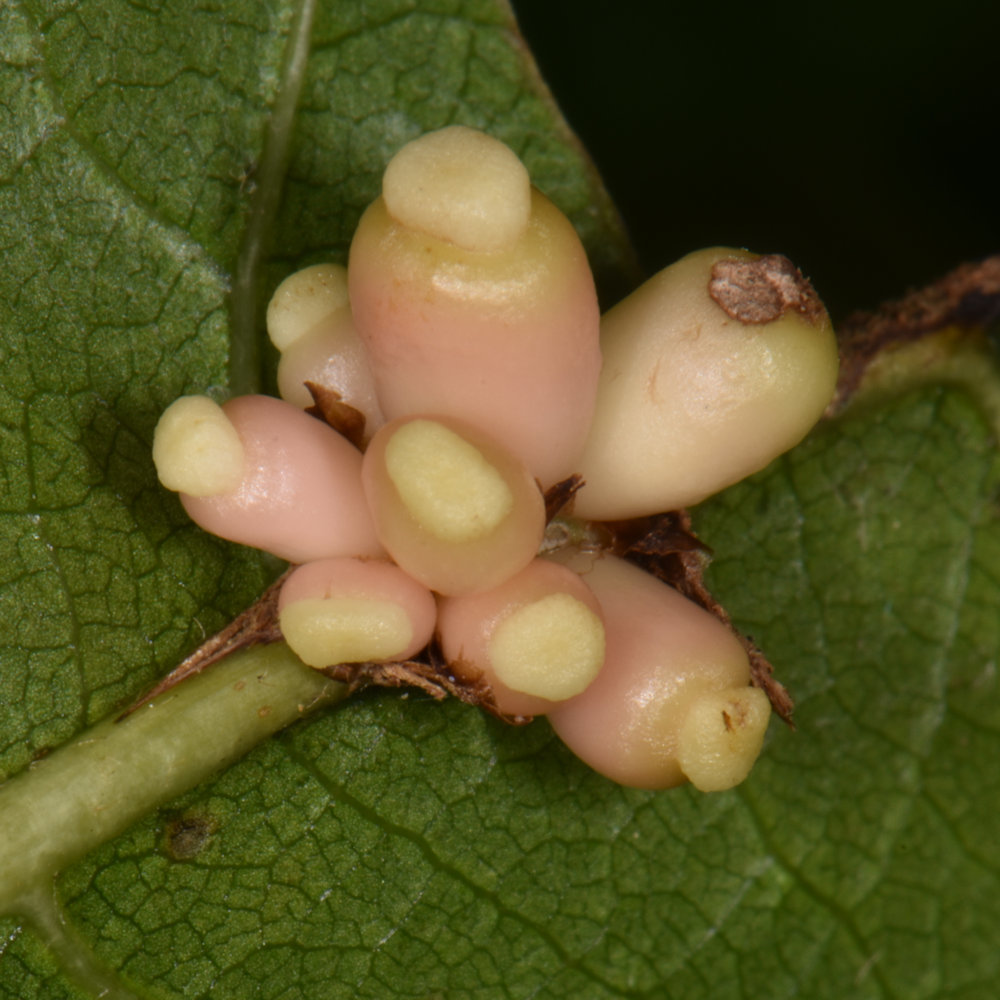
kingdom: Animalia
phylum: Arthropoda
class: Insecta
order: Hymenoptera
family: Cynipidae
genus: Kokkocynips
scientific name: Kokkocynips decidua
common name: Oak wheat gall
